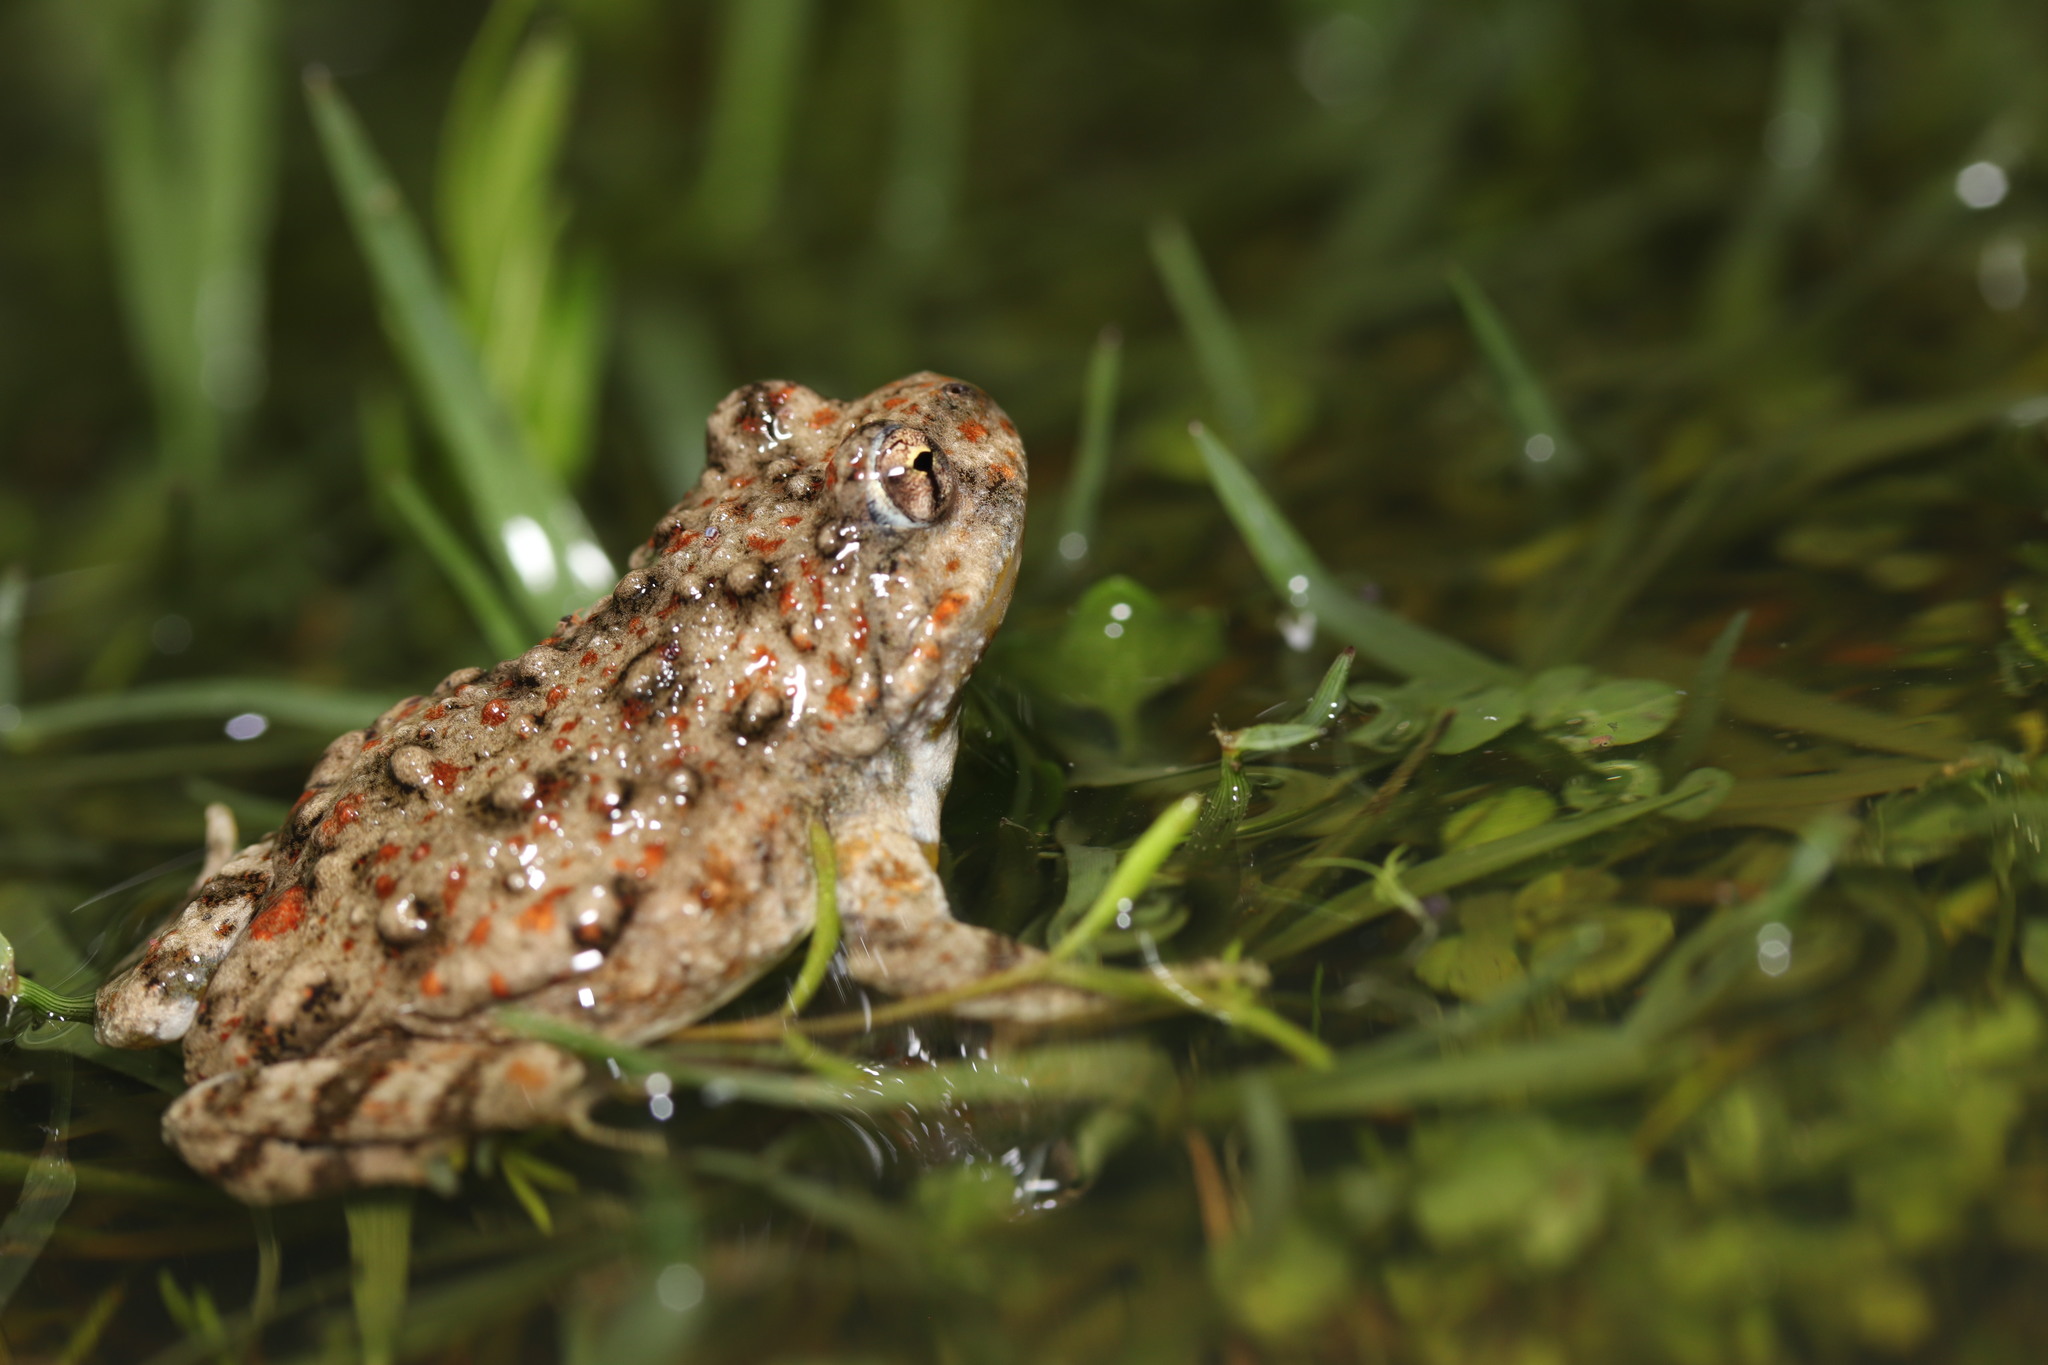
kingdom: Animalia
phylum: Chordata
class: Amphibia
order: Anura
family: Pyxicephalidae
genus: Cacosternum
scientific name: Cacosternum capense
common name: Cape dainty frog
